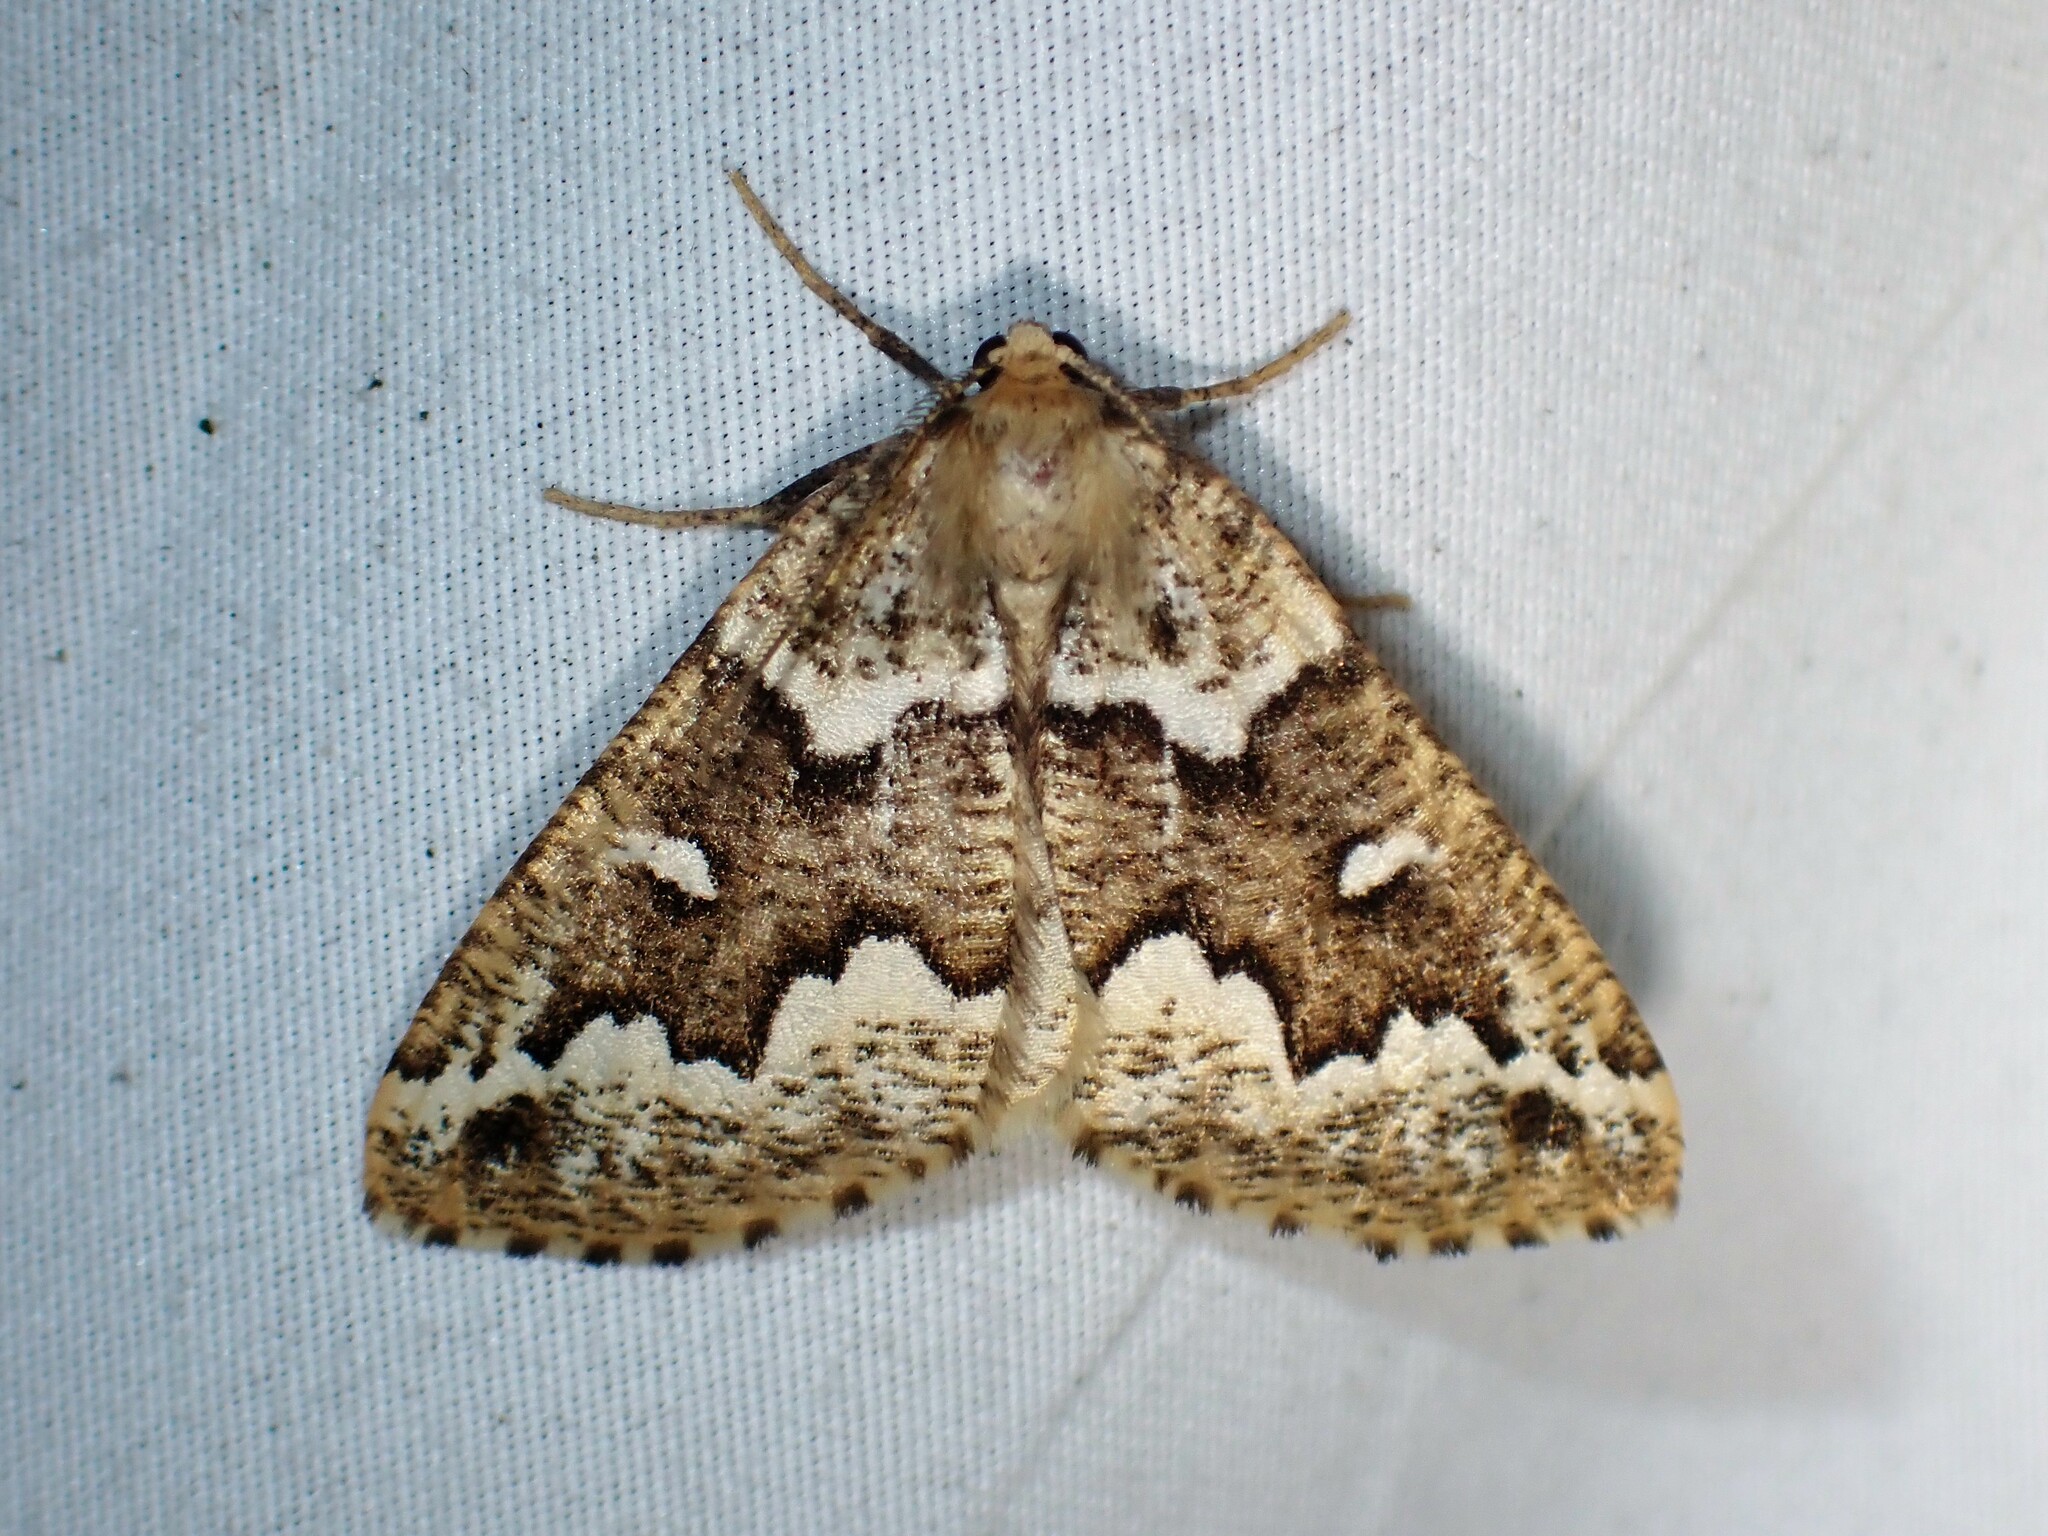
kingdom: Animalia
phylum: Arthropoda
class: Insecta
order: Lepidoptera
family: Geometridae
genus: Caripeta
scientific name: Caripeta divisata
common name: Gray spruce looper
